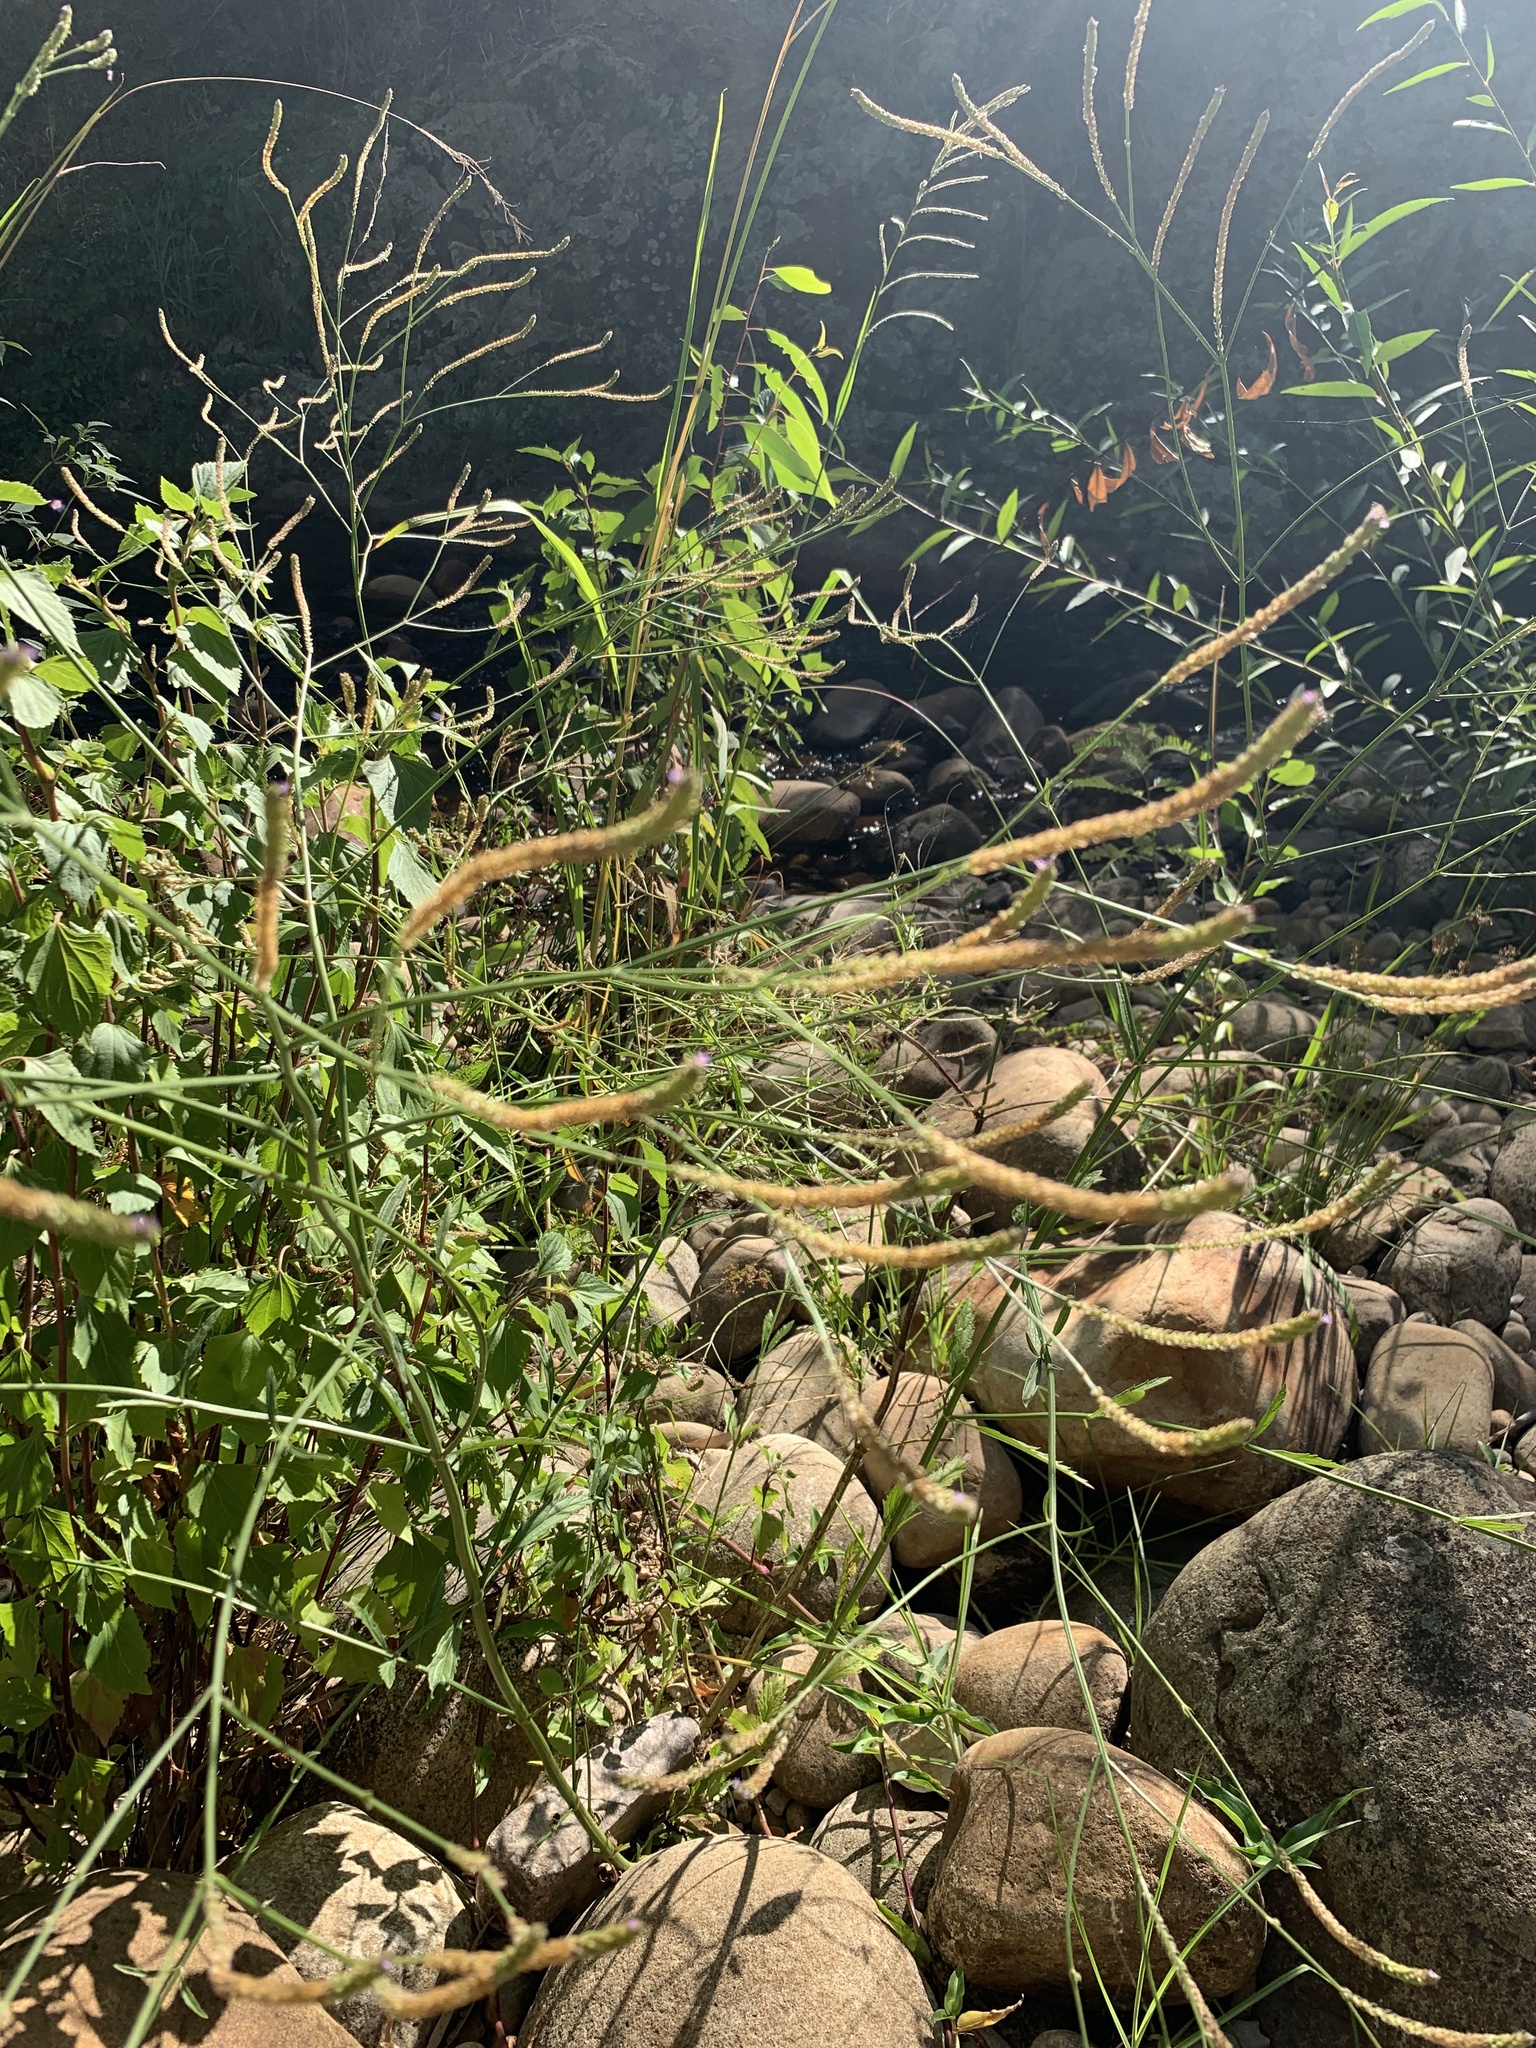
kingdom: Plantae
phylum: Tracheophyta
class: Magnoliopsida
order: Lamiales
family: Verbenaceae
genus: Verbena
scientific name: Verbena litoralis
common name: Seashore vervain
